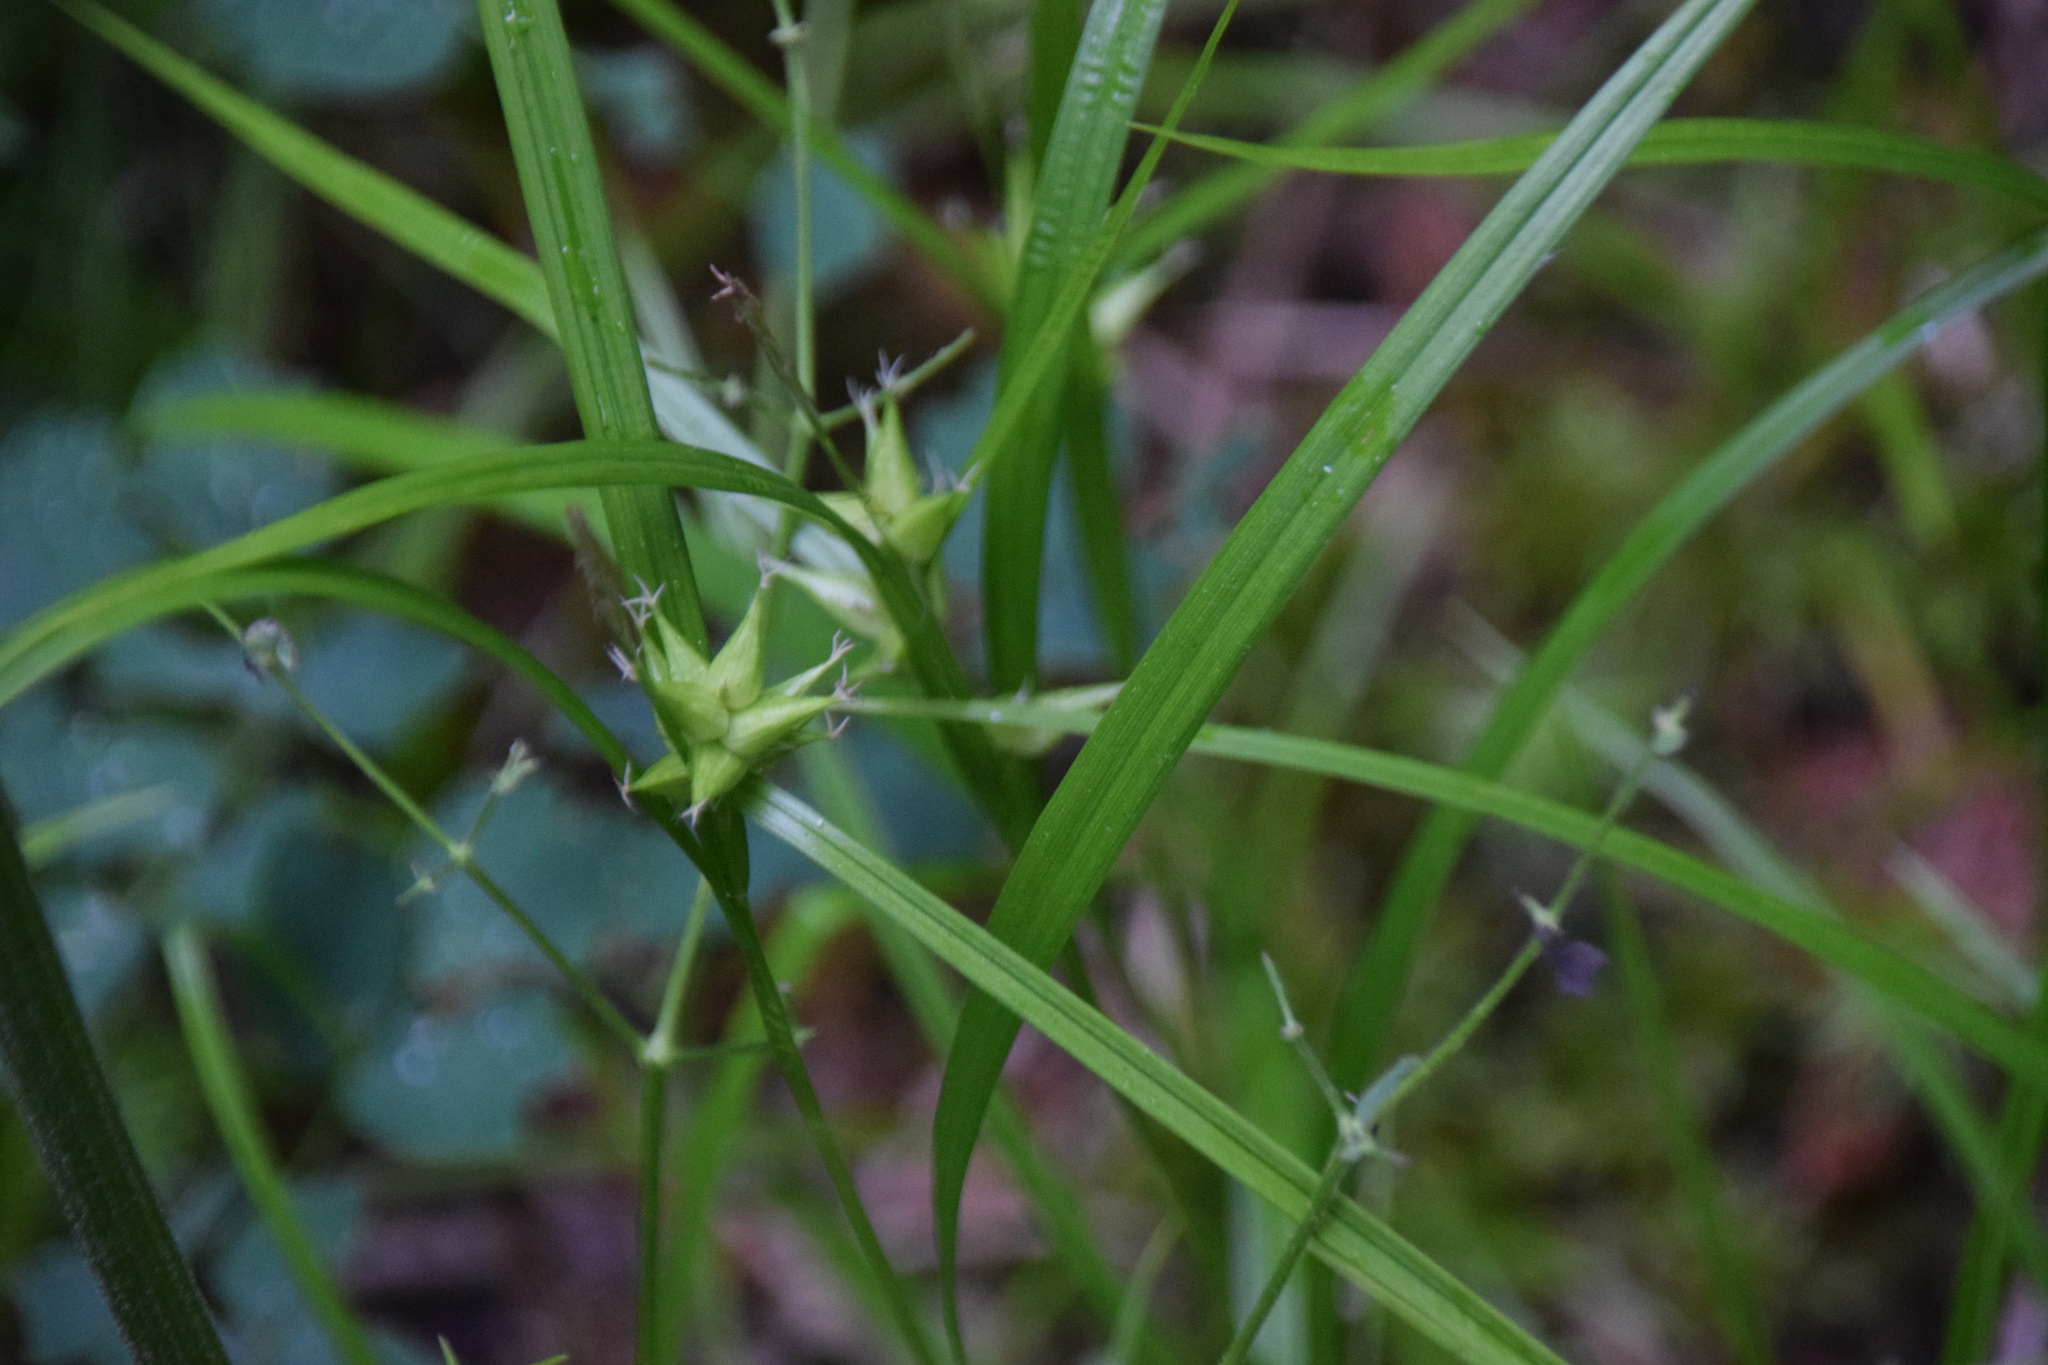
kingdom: Plantae
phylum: Tracheophyta
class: Liliopsida
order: Poales
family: Cyperaceae
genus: Carex
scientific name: Carex intumescens
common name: Greater bladder sedge
